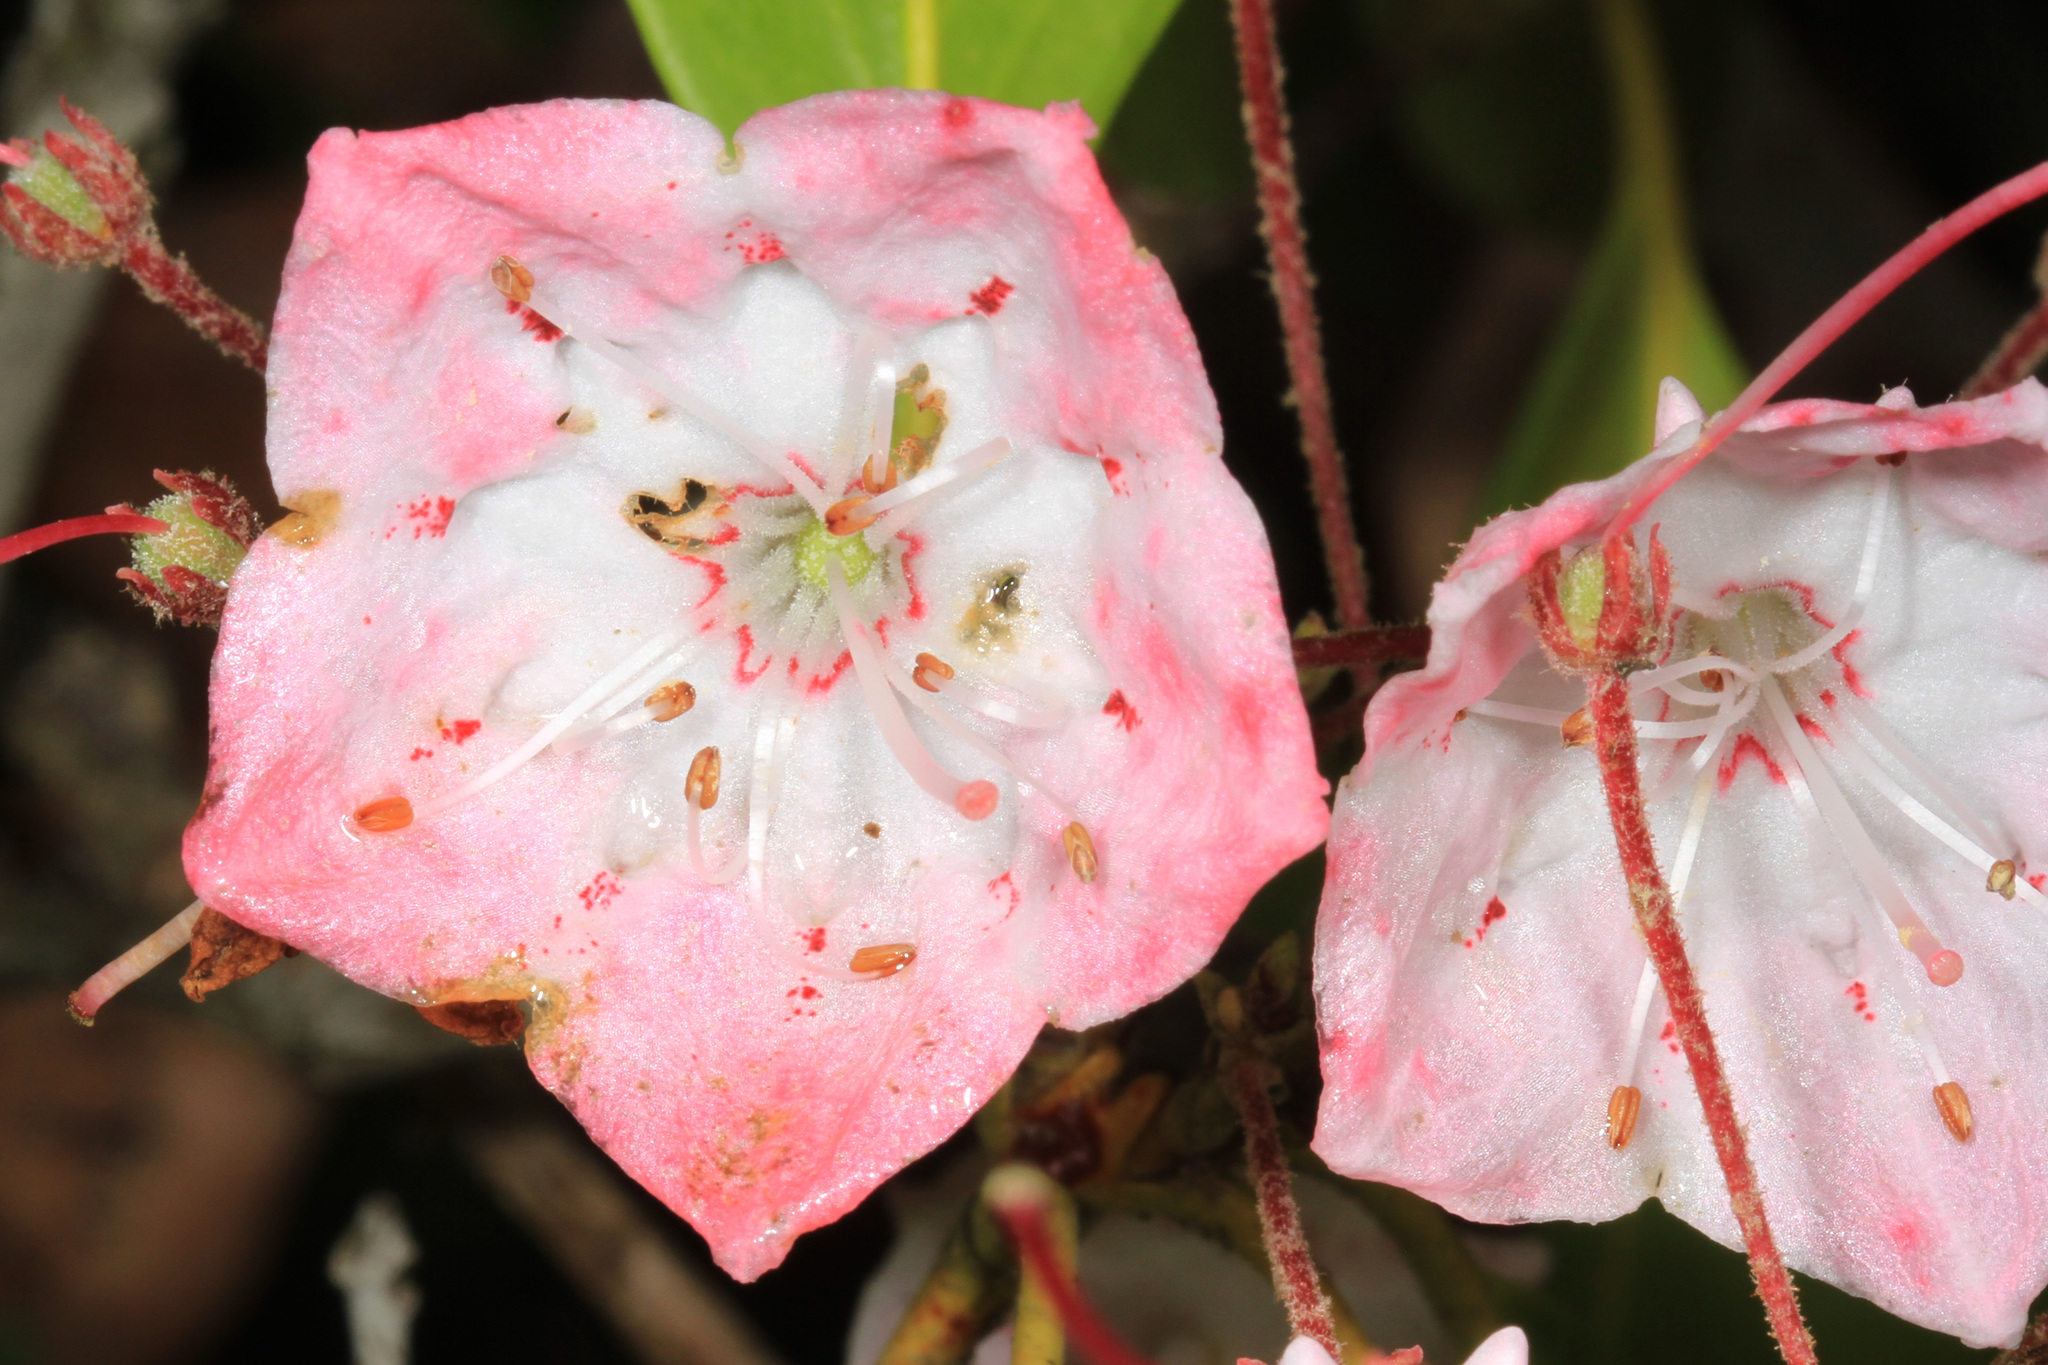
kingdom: Plantae
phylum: Tracheophyta
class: Magnoliopsida
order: Ericales
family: Ericaceae
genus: Kalmia
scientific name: Kalmia latifolia
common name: Mountain-laurel
